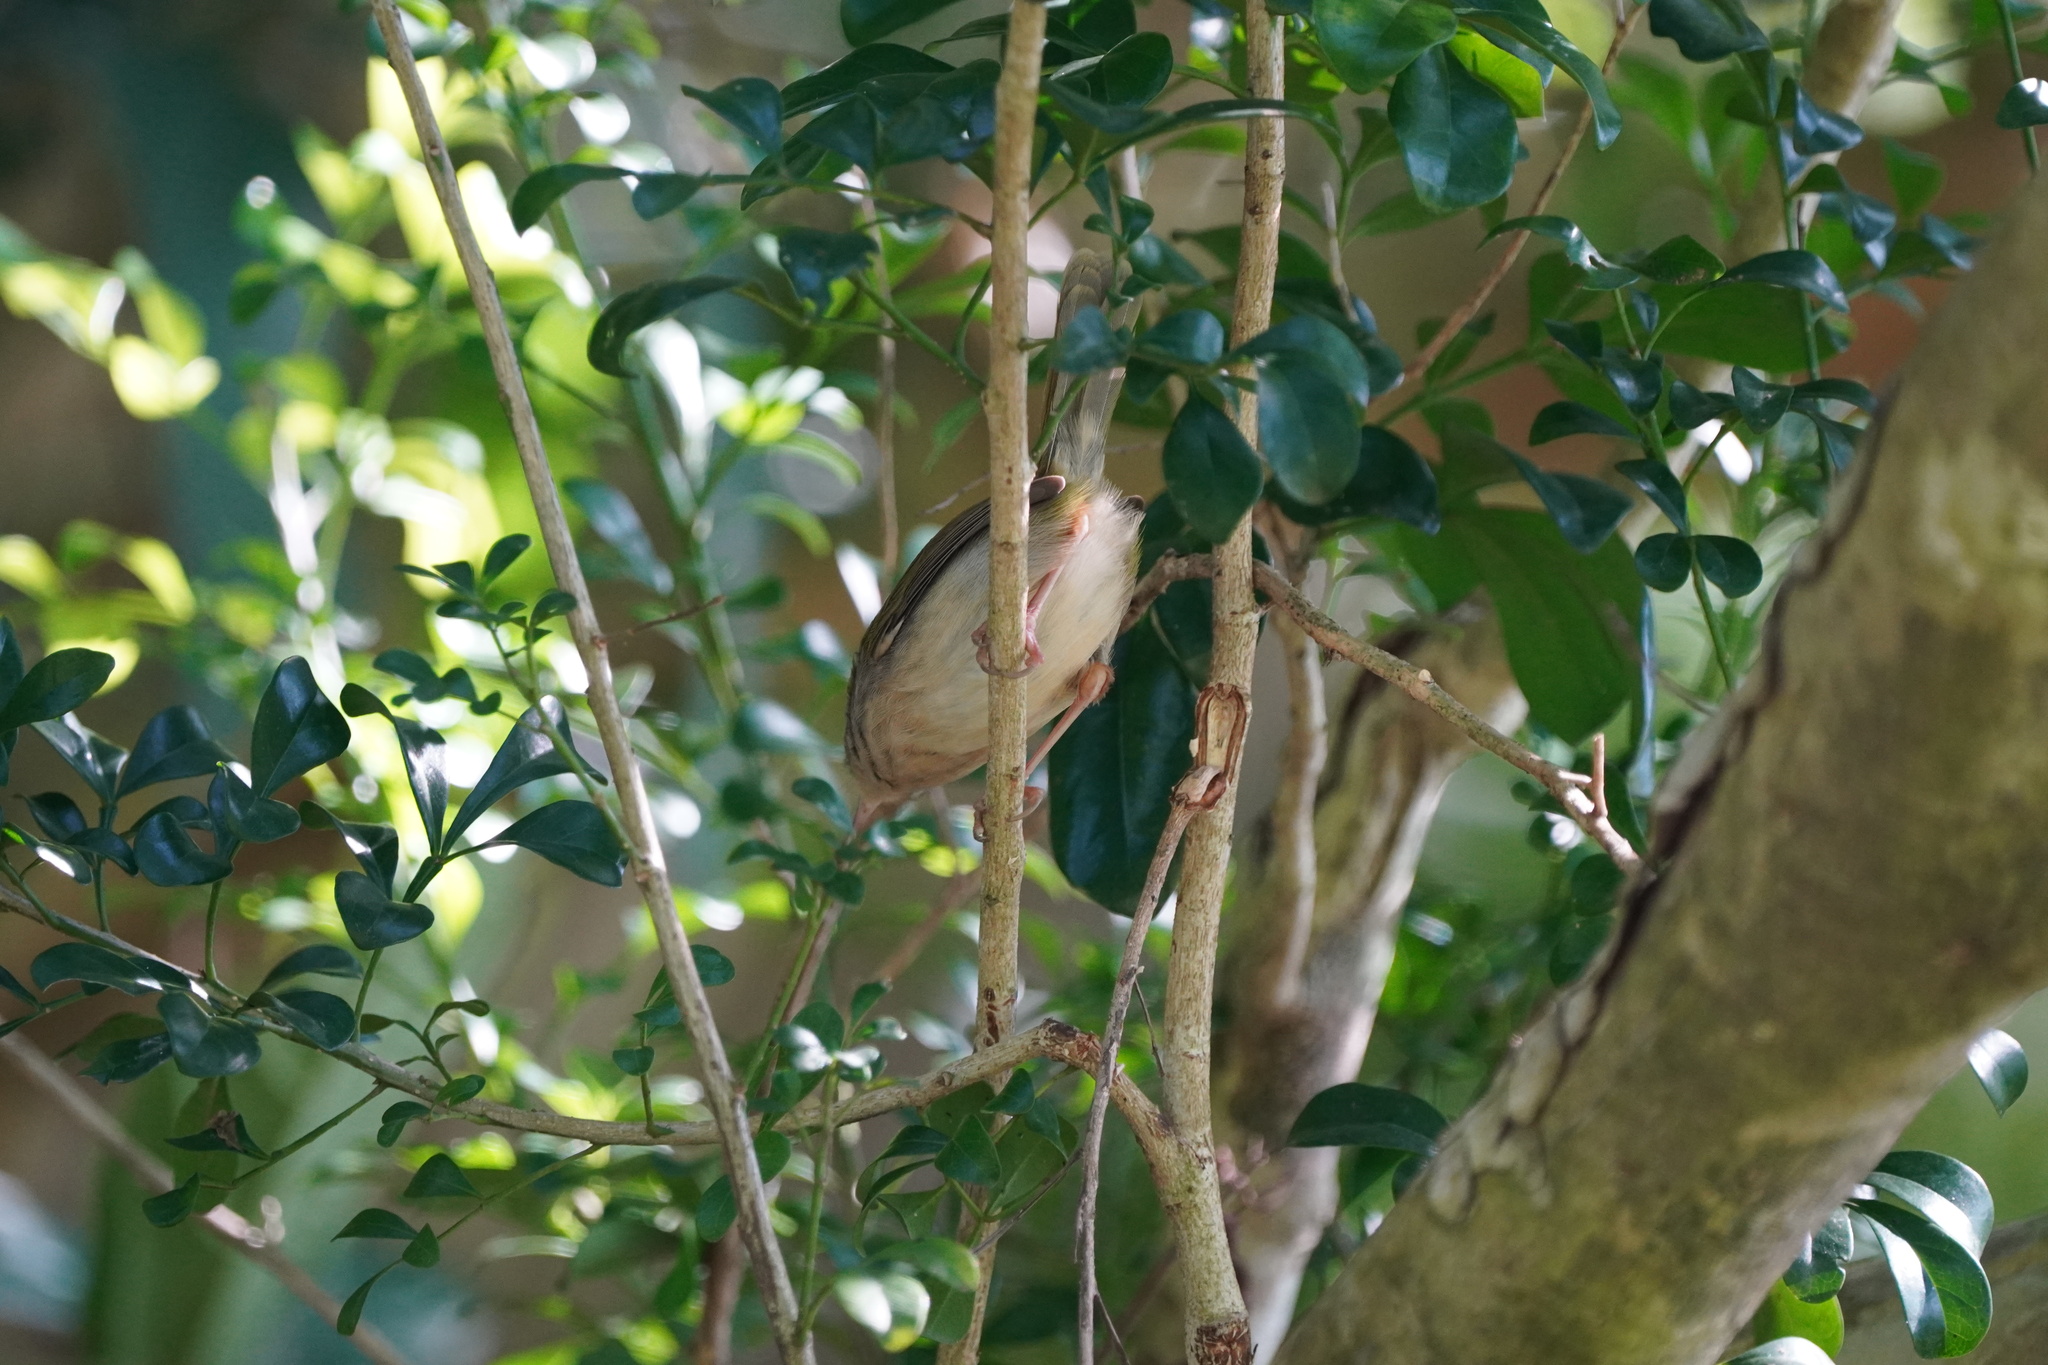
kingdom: Animalia
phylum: Chordata
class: Aves
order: Passeriformes
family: Cisticolidae
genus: Orthotomus
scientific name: Orthotomus sutorius
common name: Common tailorbird
